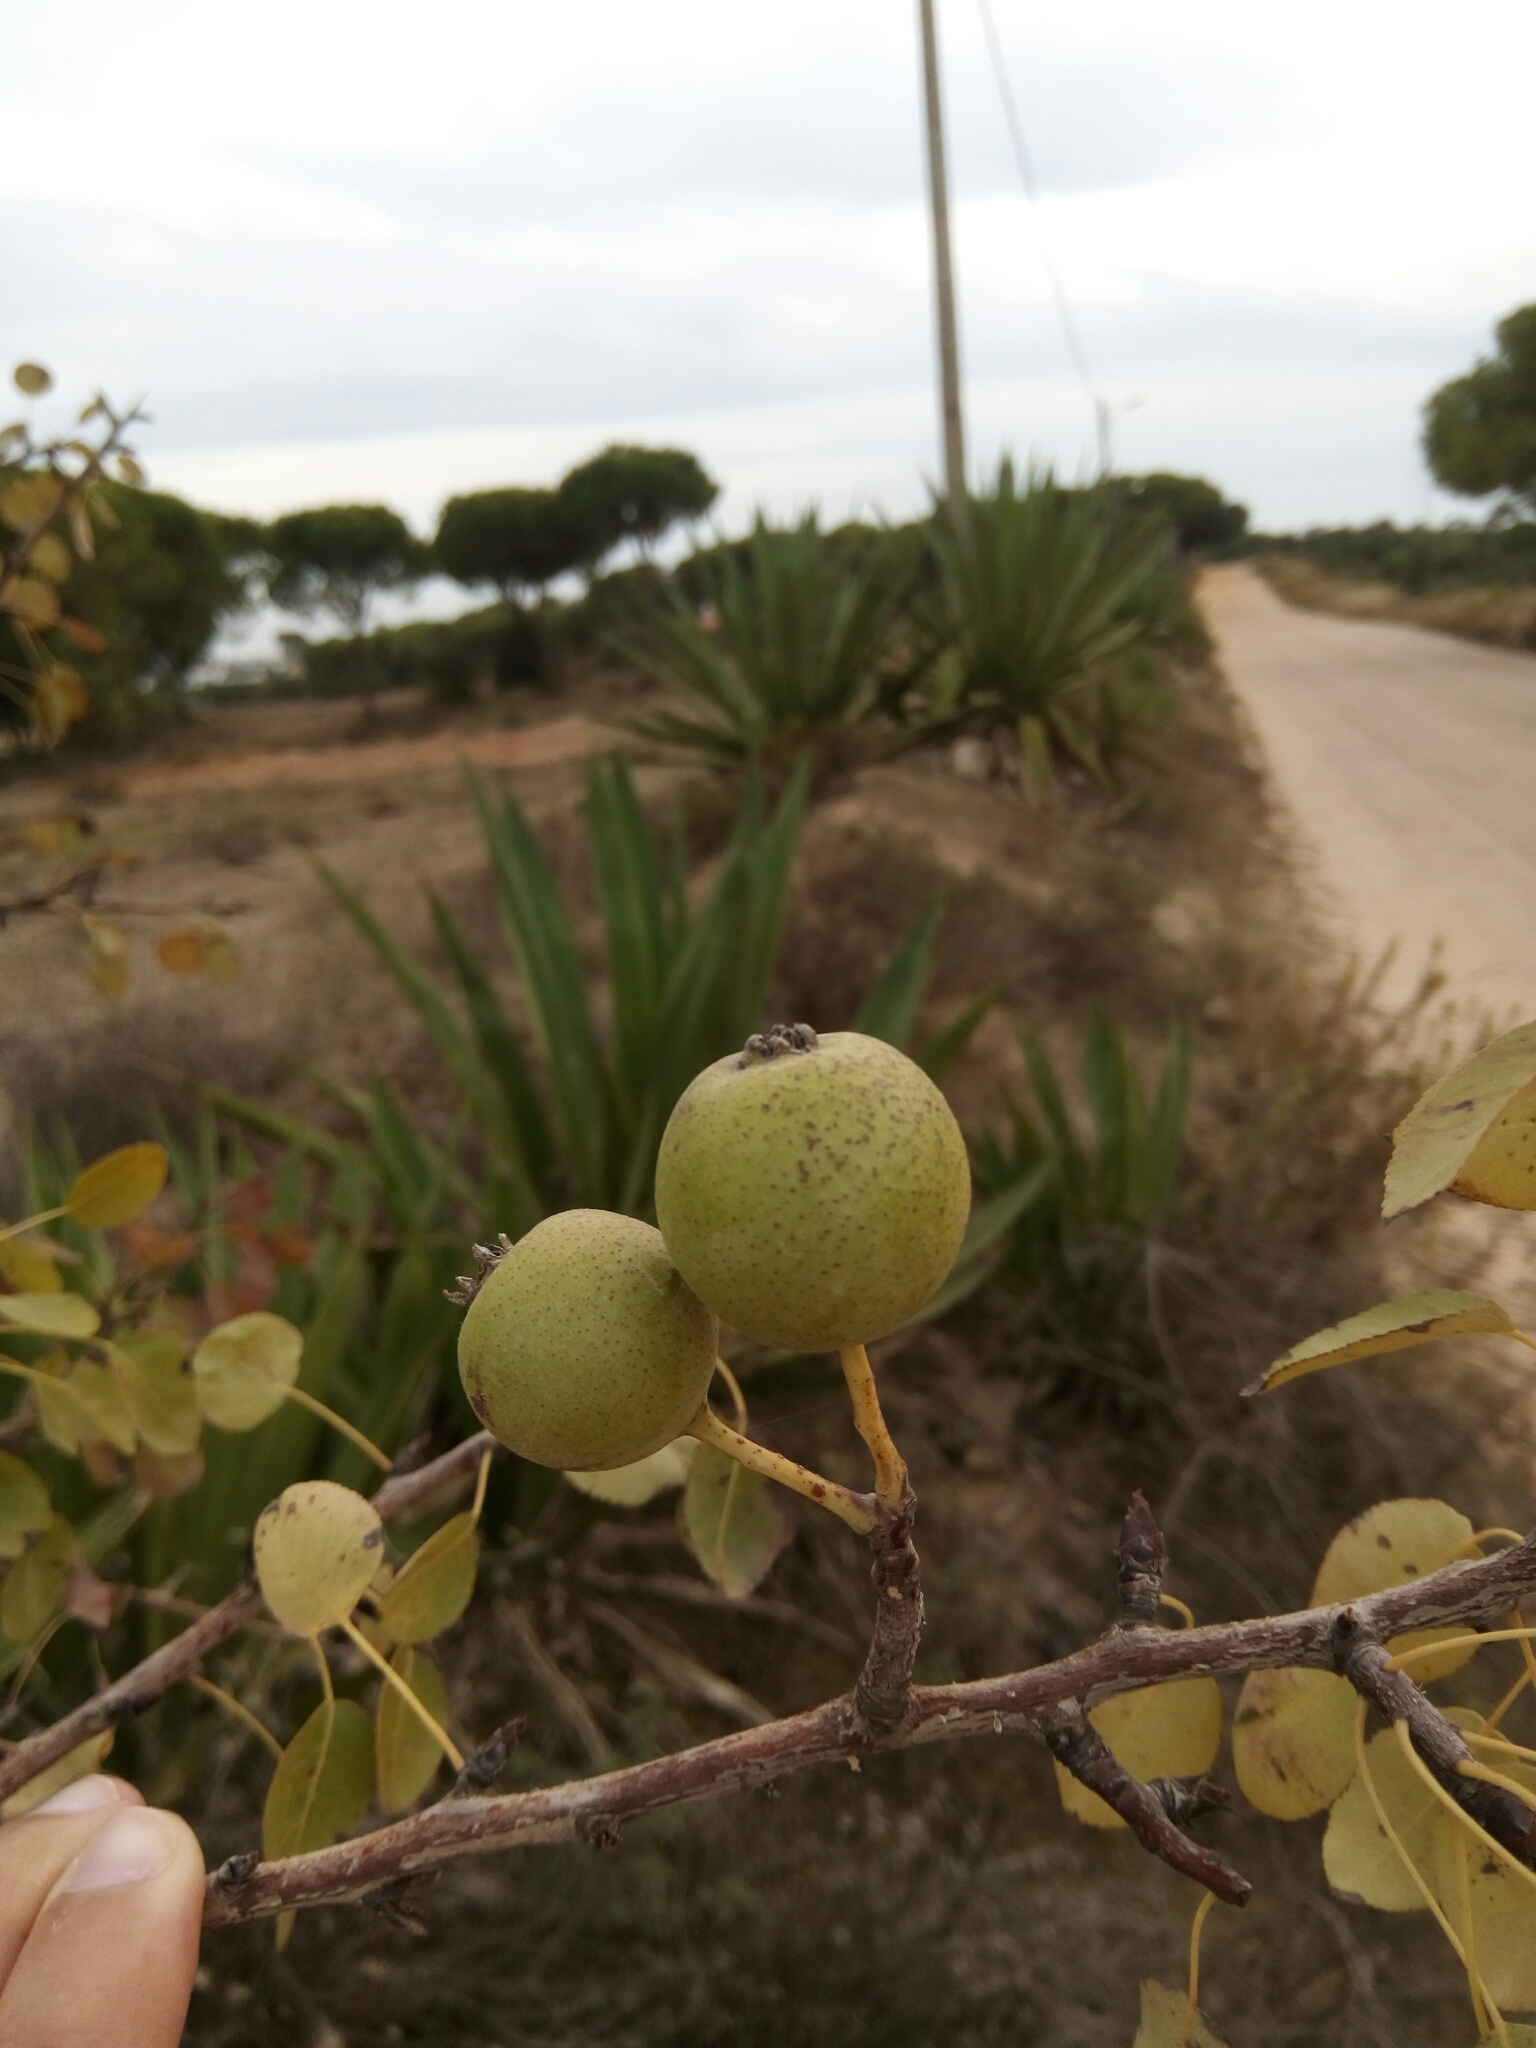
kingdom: Plantae
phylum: Tracheophyta
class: Magnoliopsida
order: Rosales
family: Rosaceae
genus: Pyrus
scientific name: Pyrus bourgaeana
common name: Iberian pear
